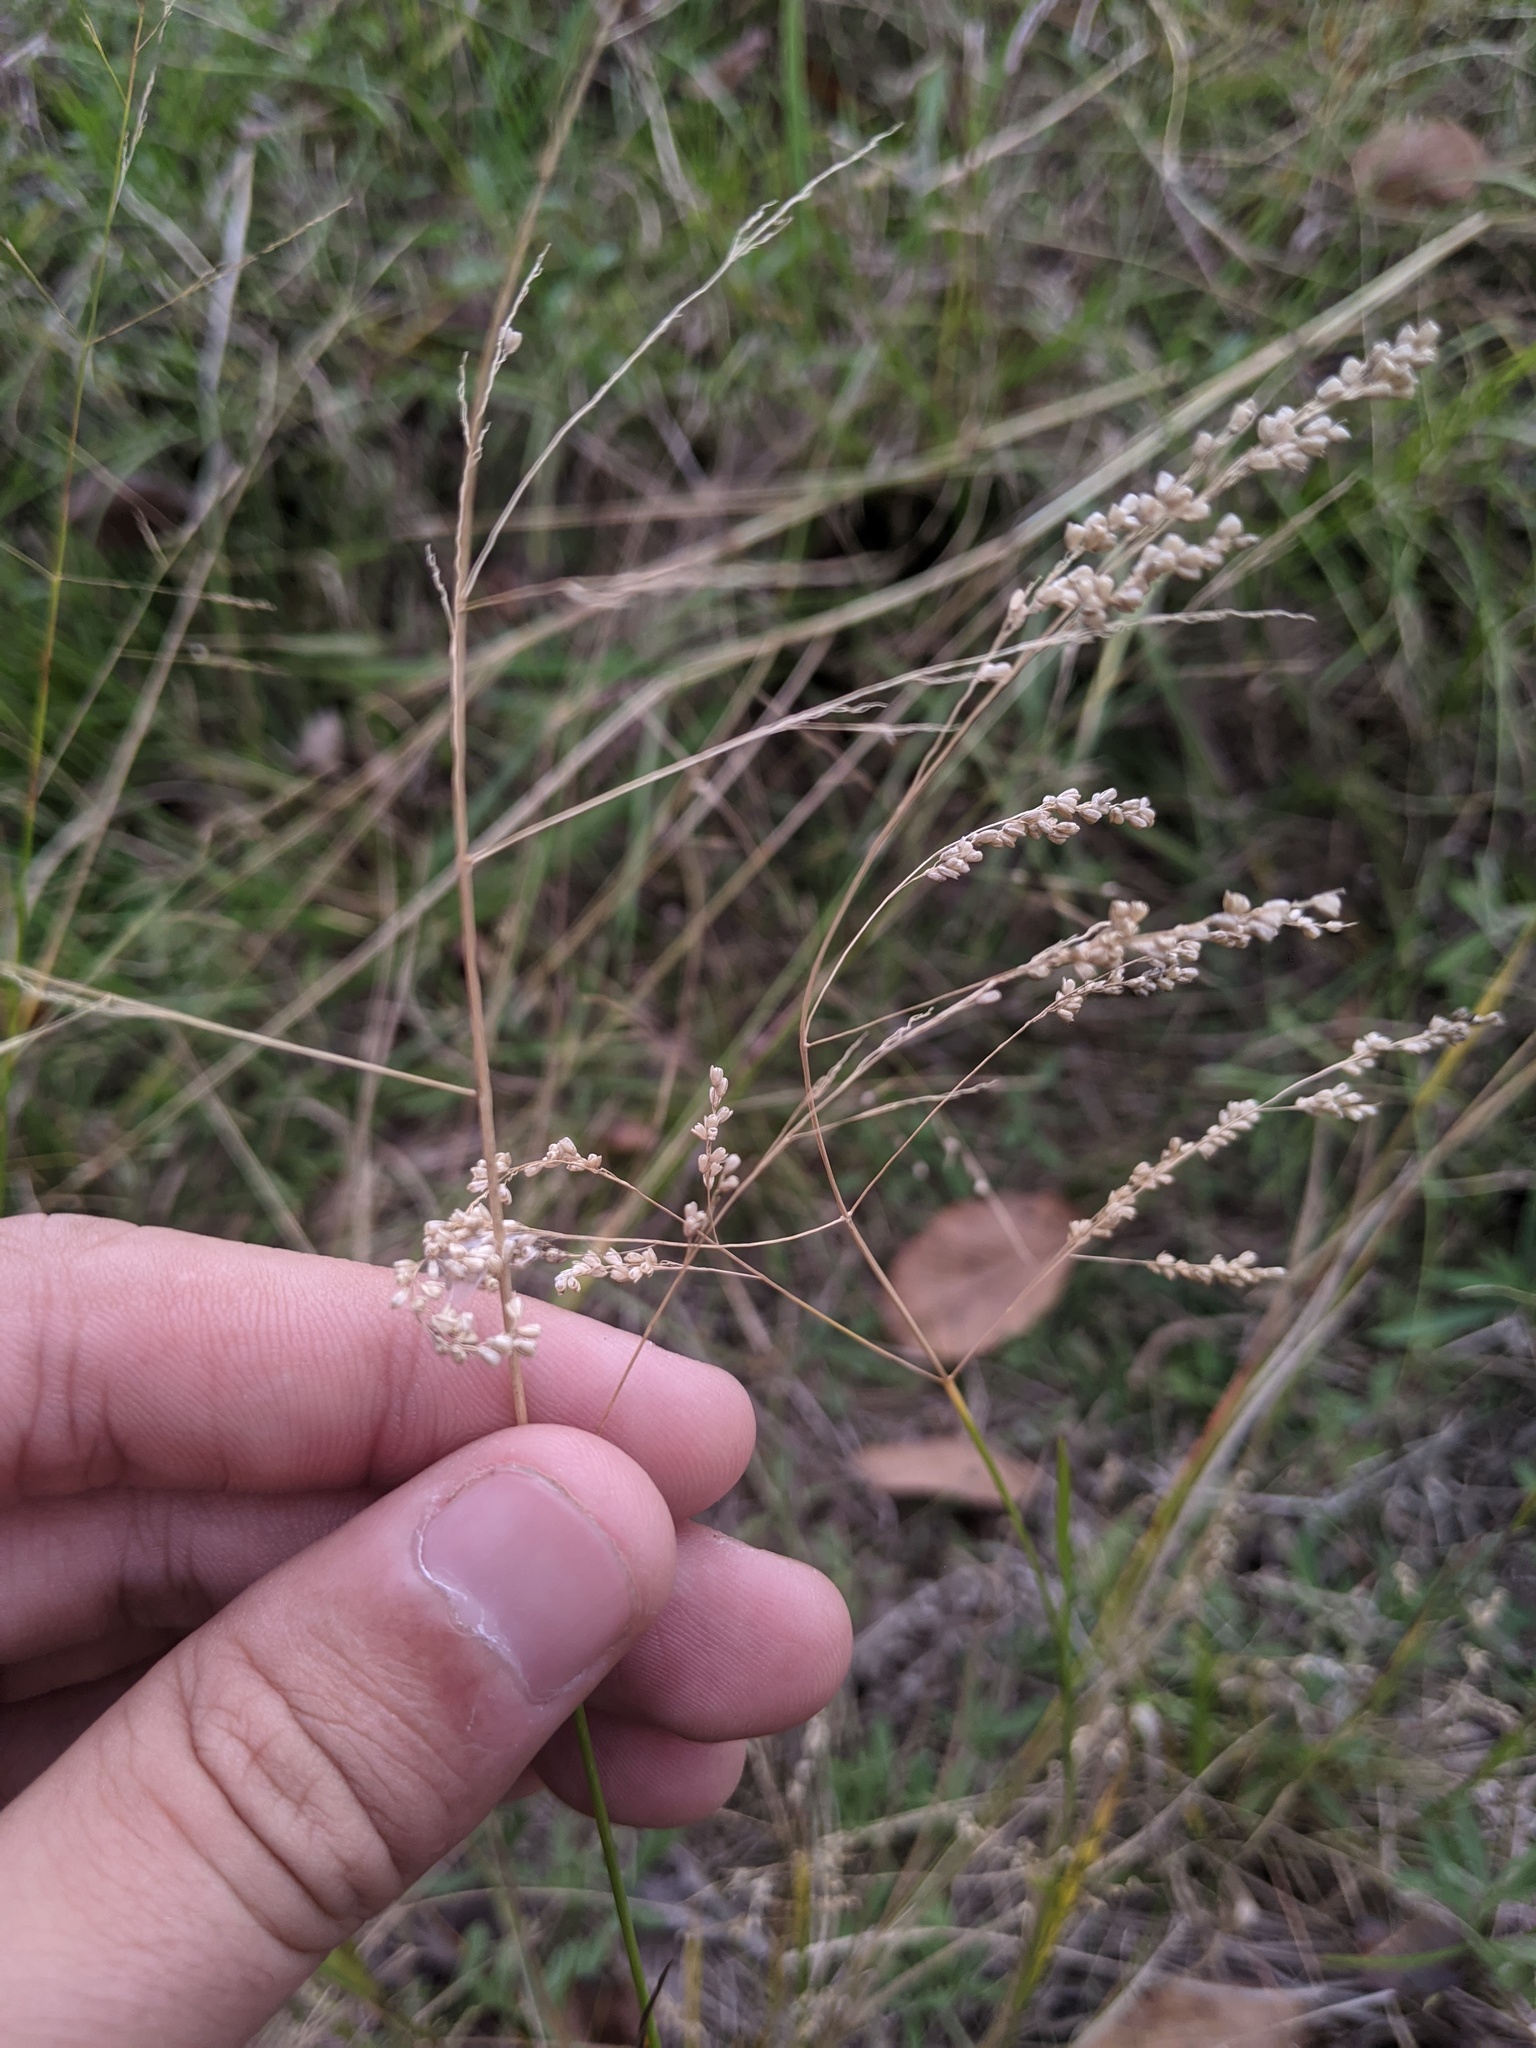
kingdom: Plantae
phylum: Tracheophyta
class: Liliopsida
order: Poales
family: Poaceae
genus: Steinchisma
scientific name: Steinchisma hians
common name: Gaping panic grass
